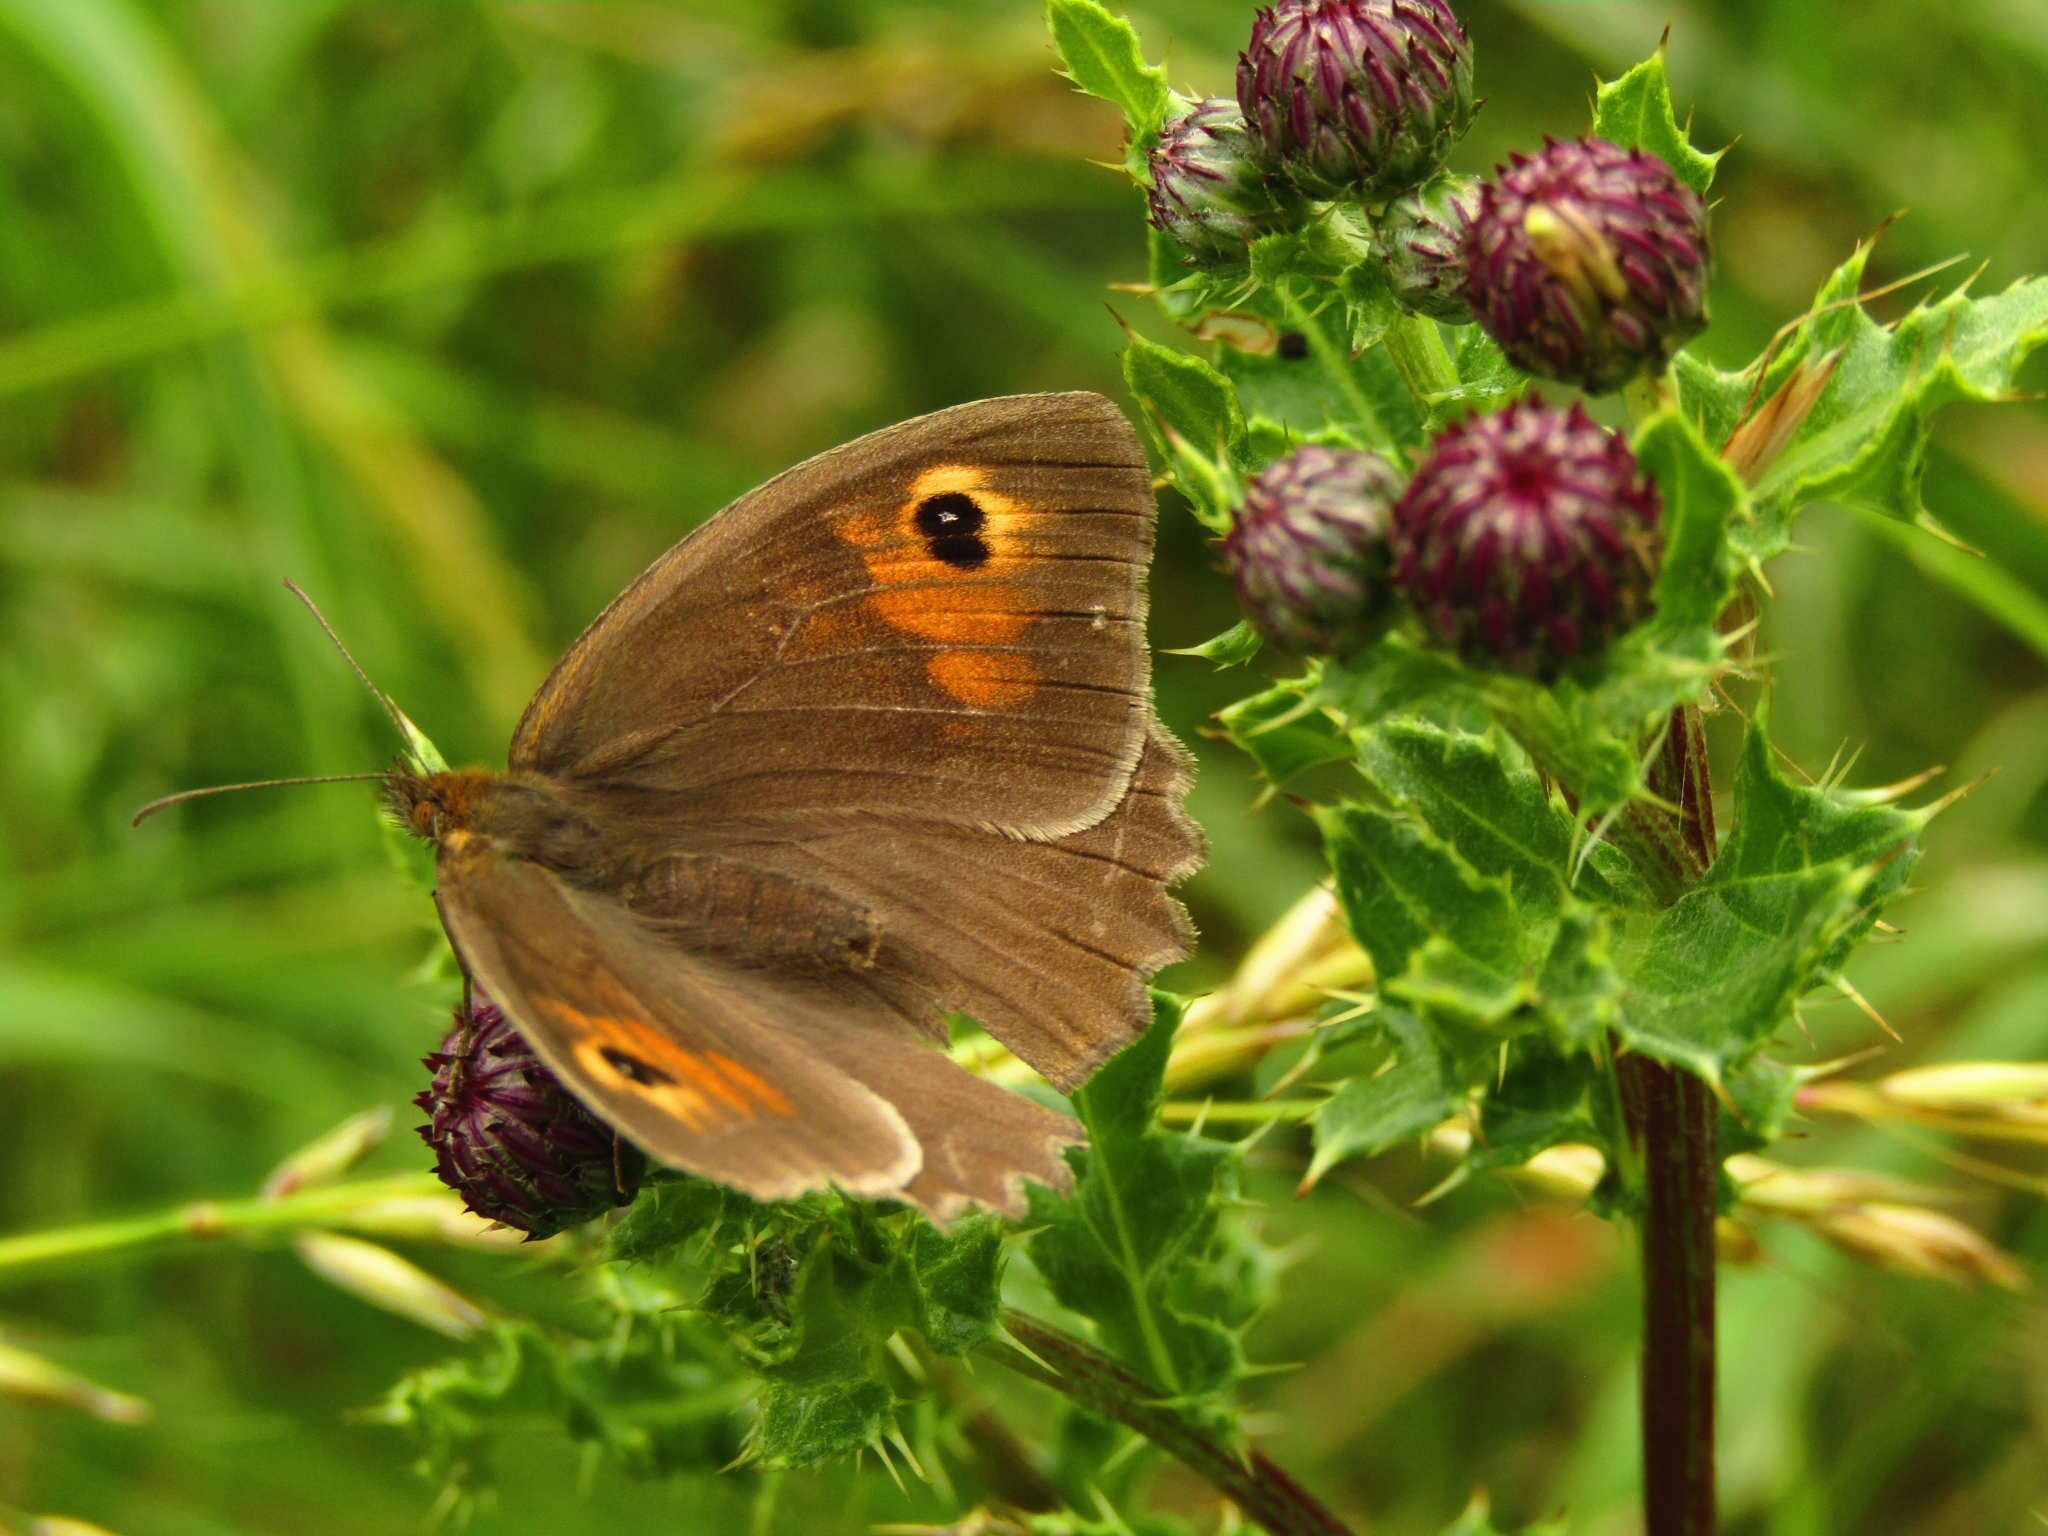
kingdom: Animalia
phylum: Arthropoda
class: Insecta
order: Lepidoptera
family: Nymphalidae
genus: Maniola
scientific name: Maniola jurtina
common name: Meadow brown
